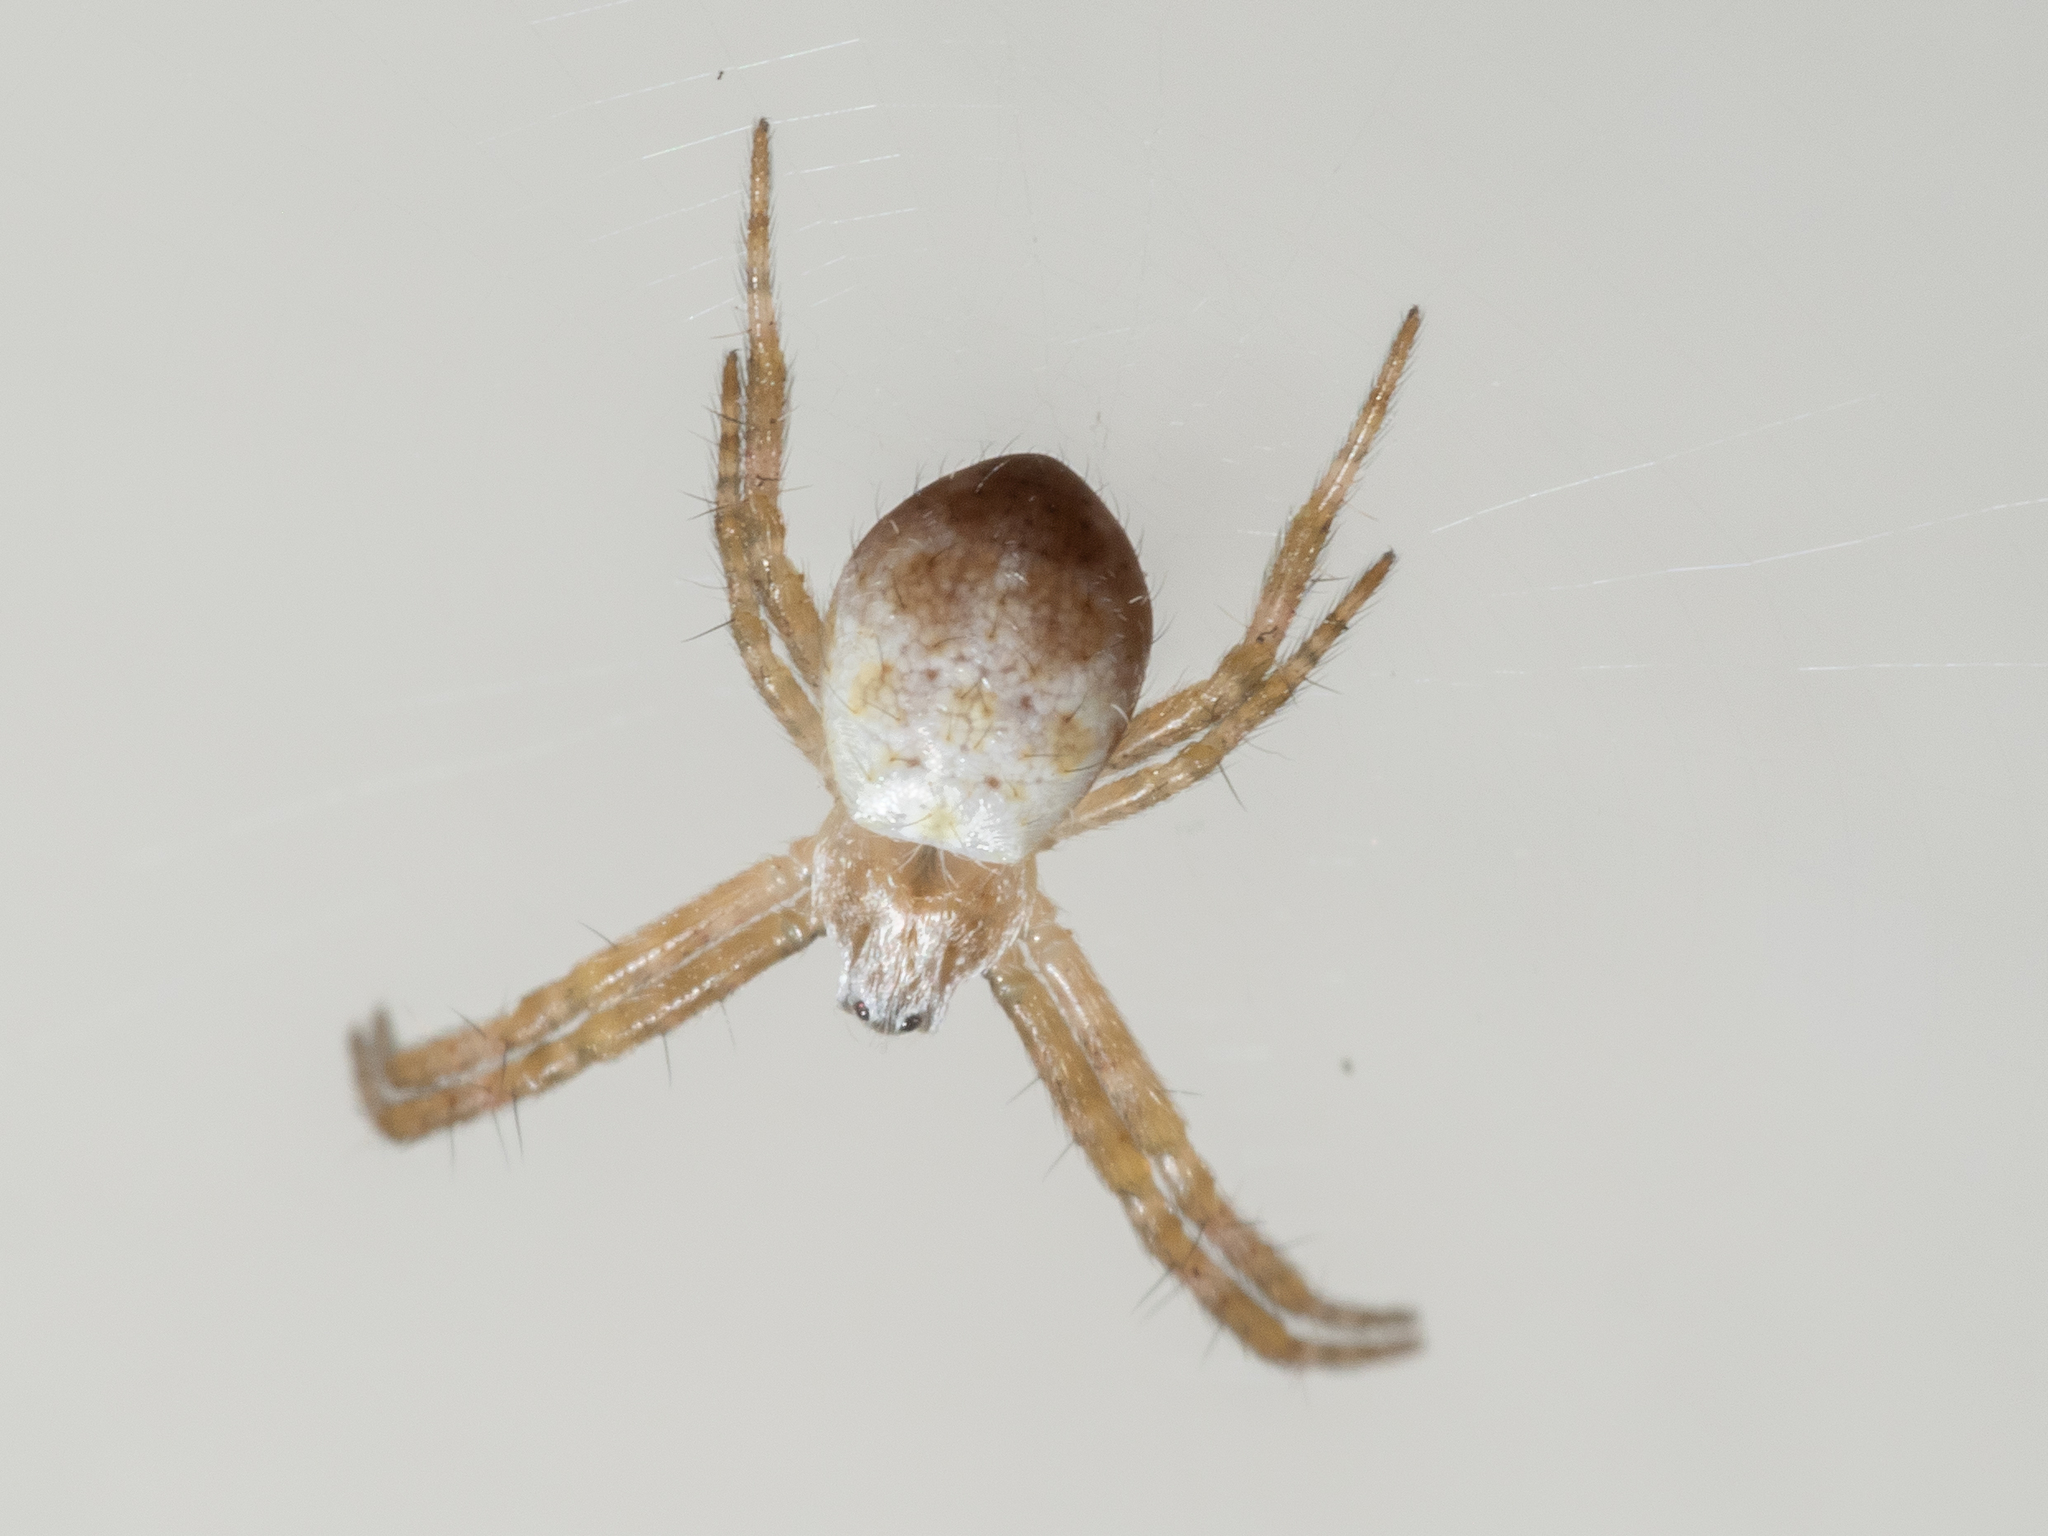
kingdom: Animalia
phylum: Arthropoda
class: Arachnida
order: Araneae
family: Araneidae
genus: Argiope
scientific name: Argiope keyserlingi
